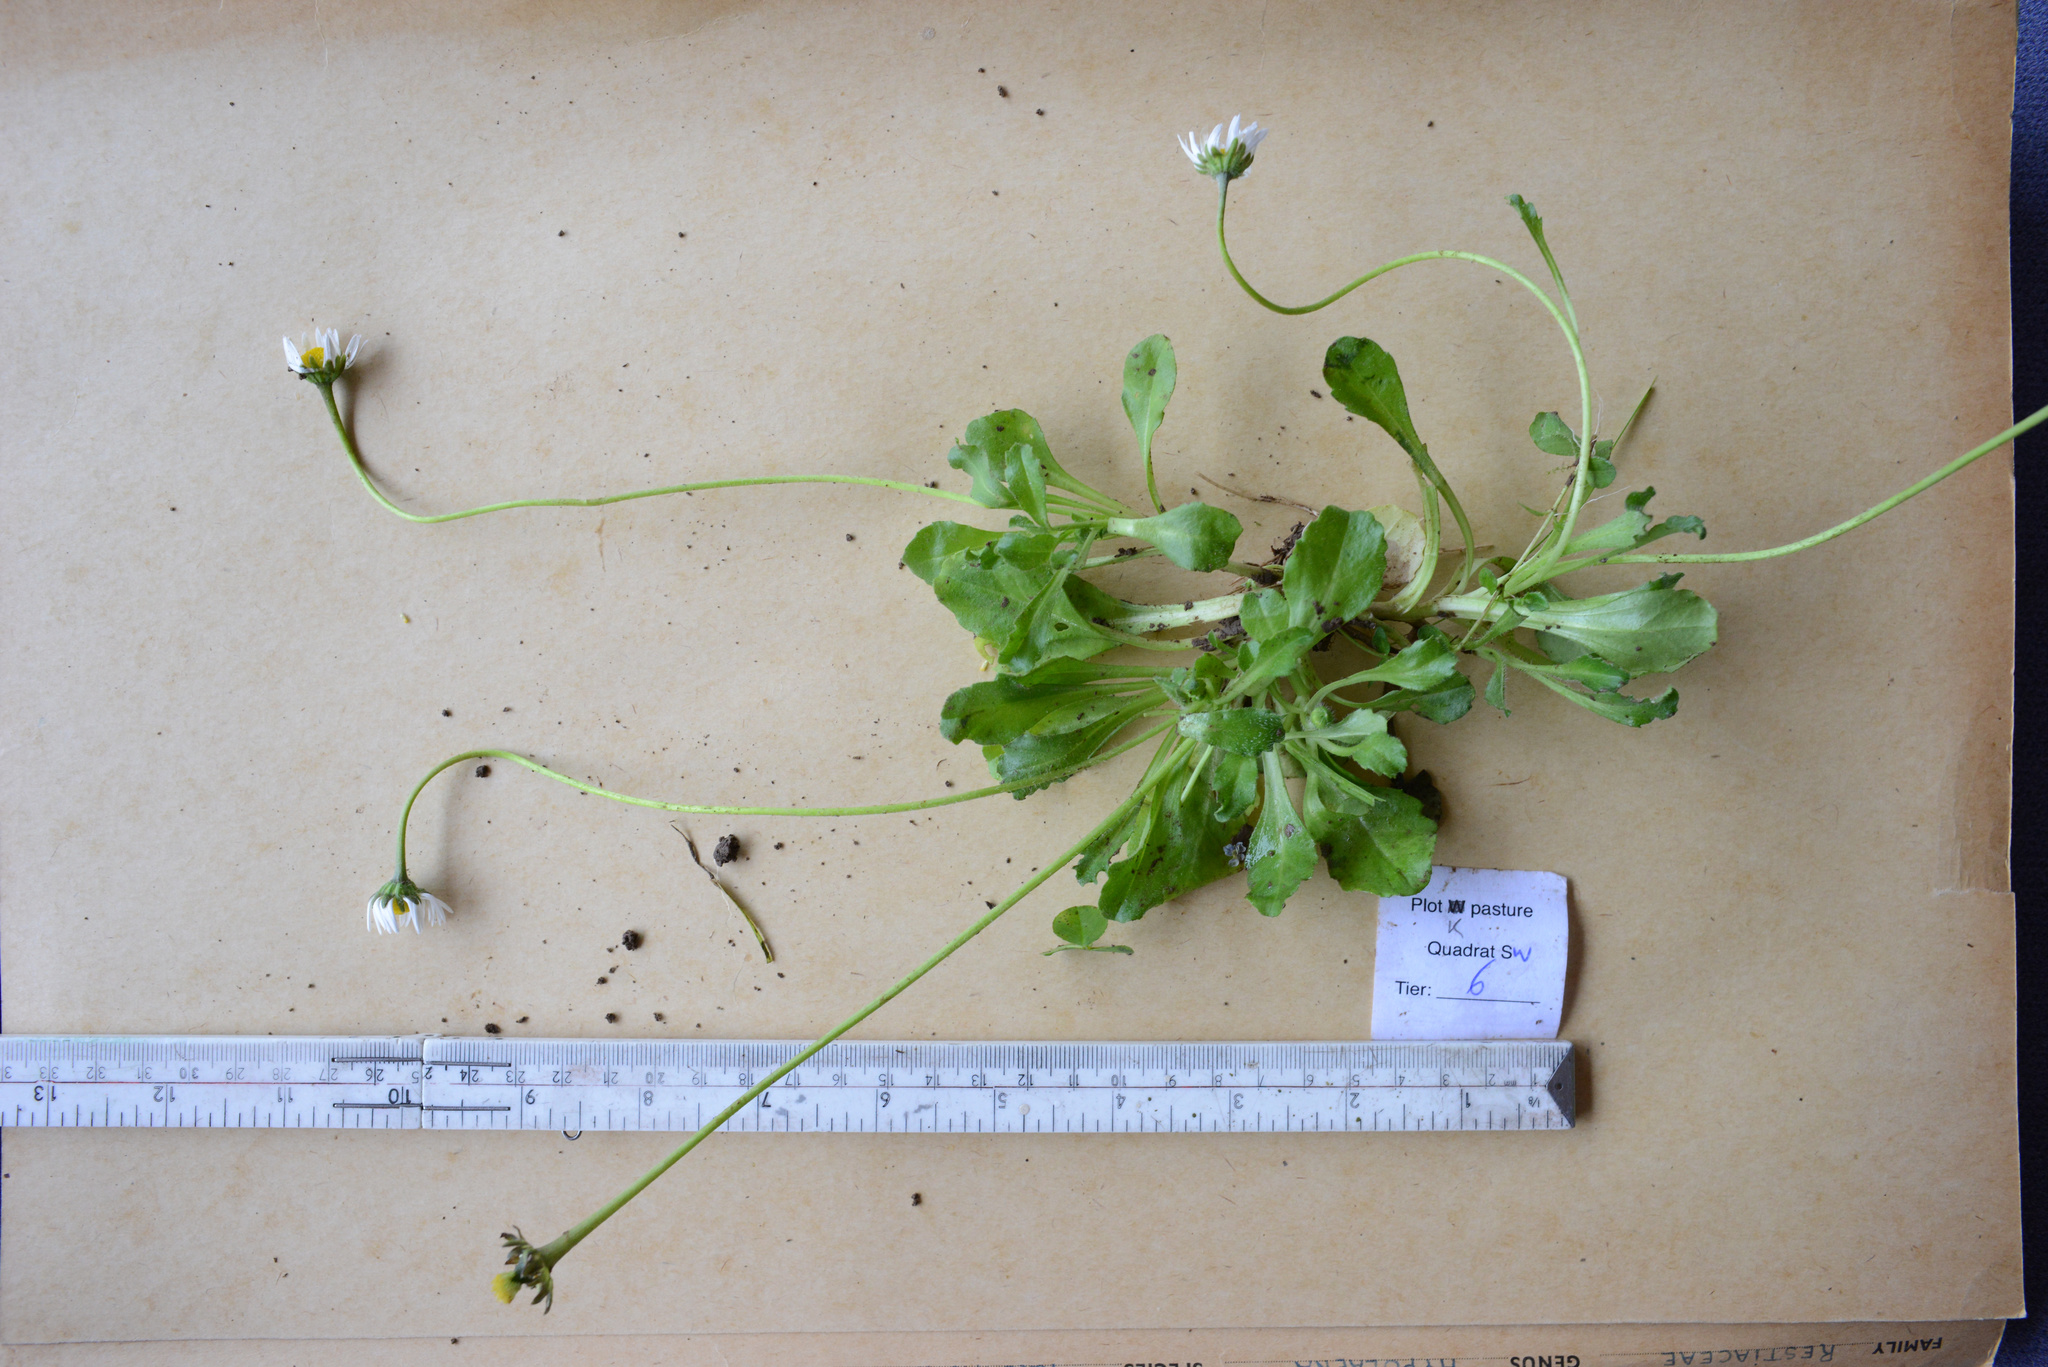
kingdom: Plantae
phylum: Tracheophyta
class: Magnoliopsida
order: Asterales
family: Asteraceae
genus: Bellis
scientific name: Bellis perennis
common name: Lawndaisy
